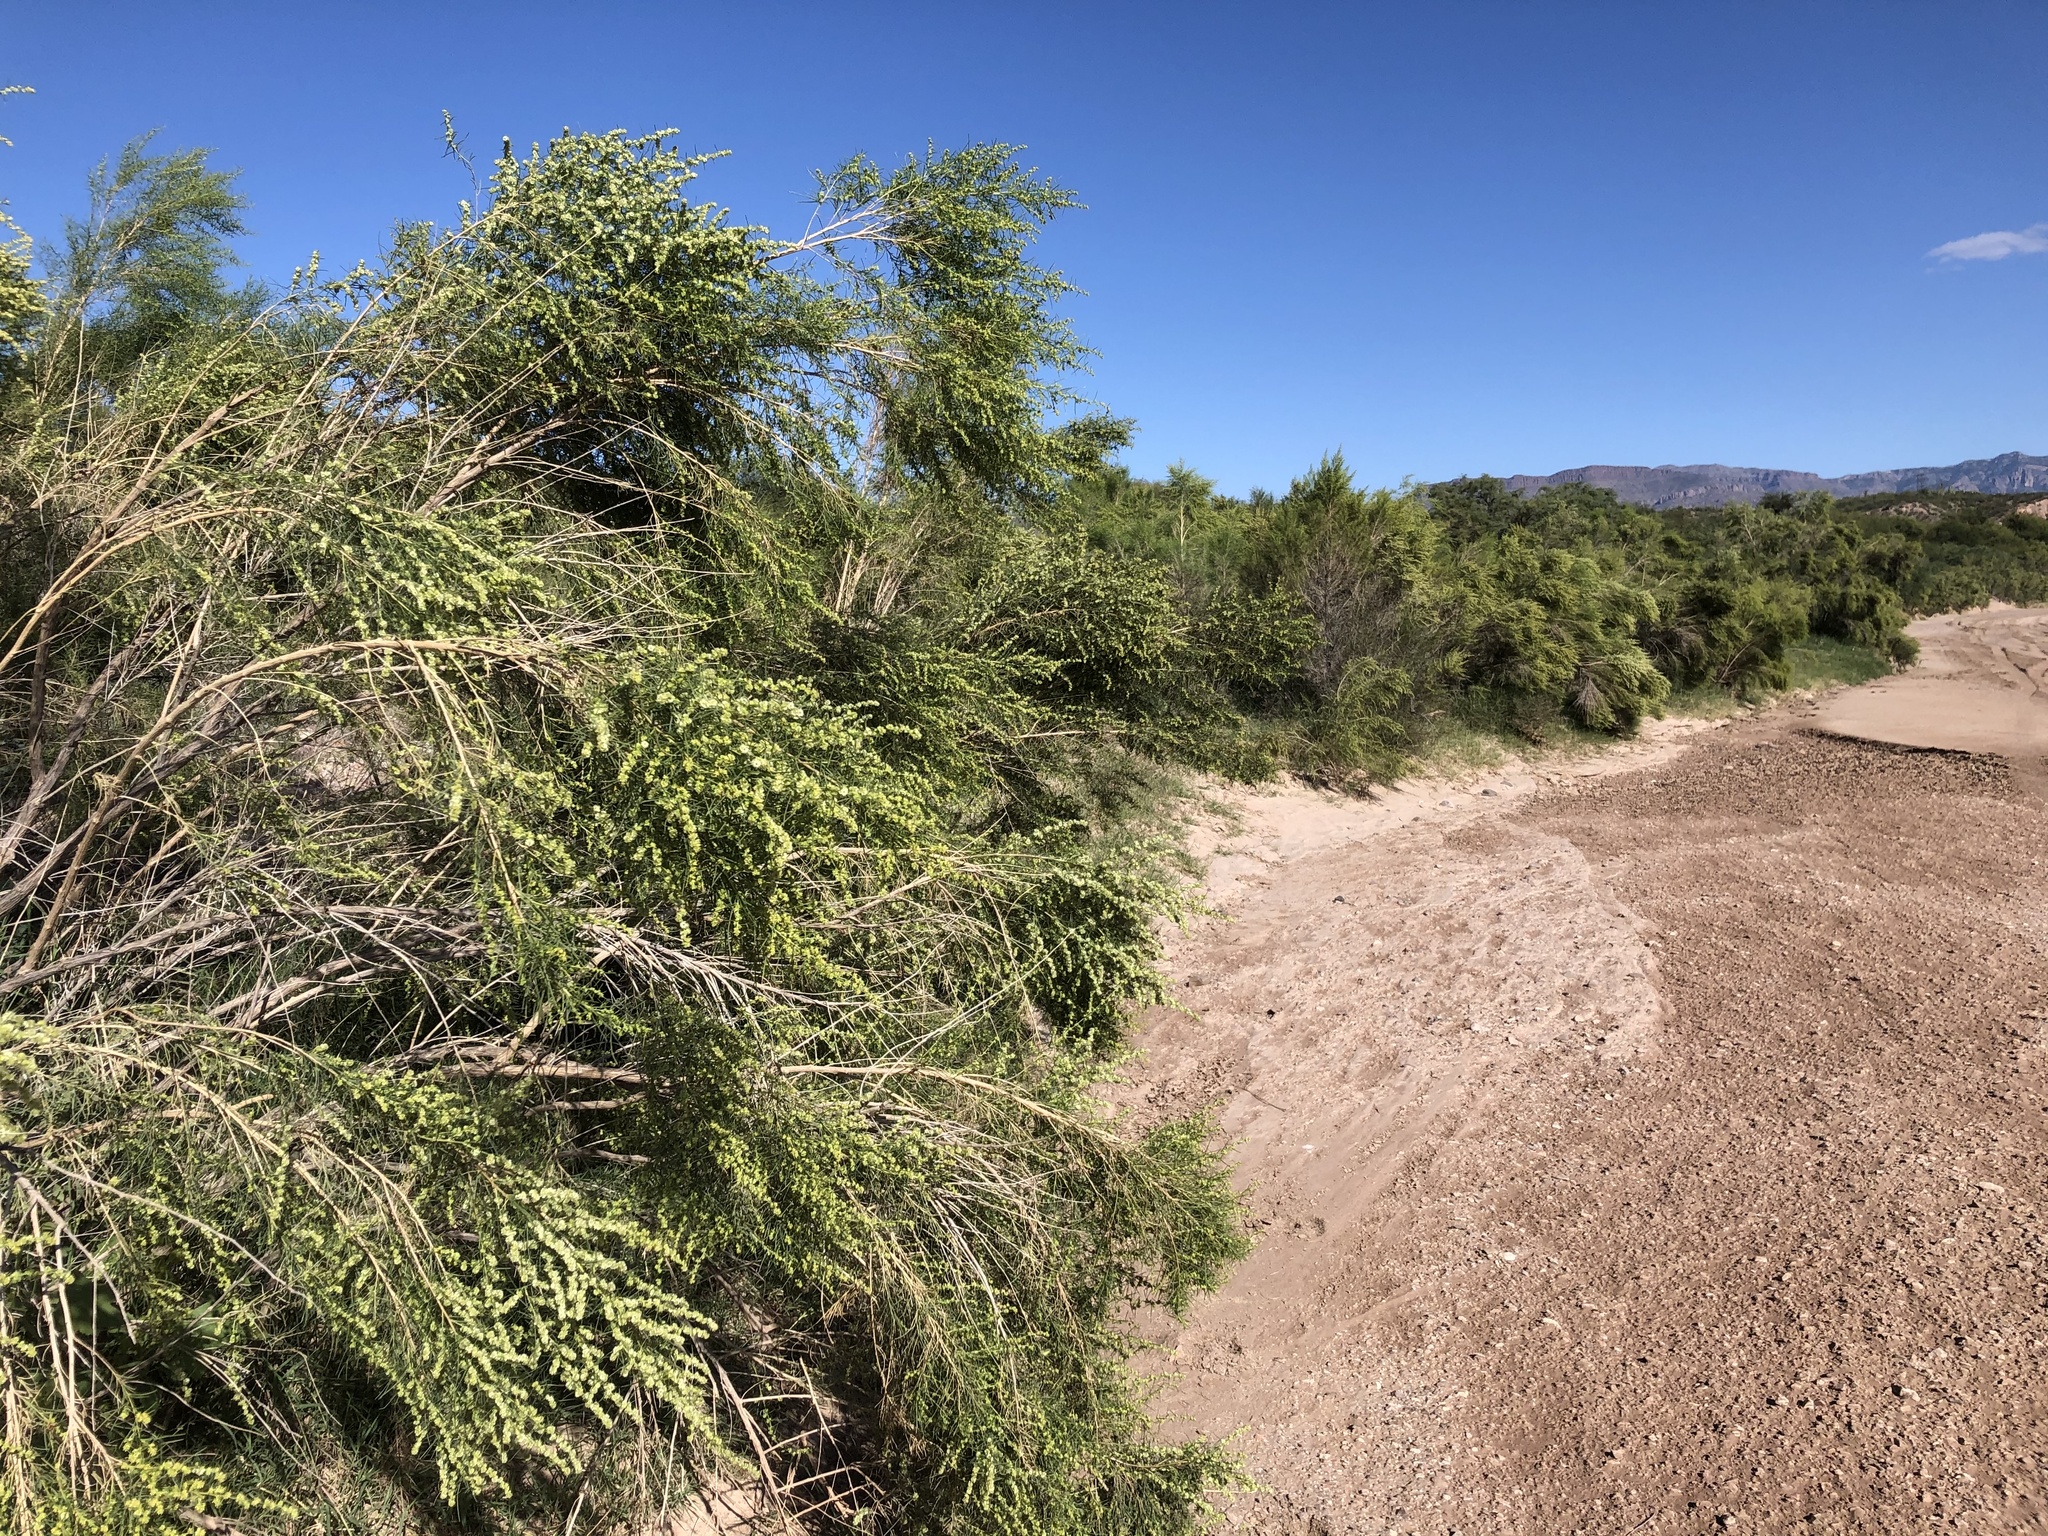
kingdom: Plantae
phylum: Tracheophyta
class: Magnoliopsida
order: Asterales
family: Asteraceae
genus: Ambrosia
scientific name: Ambrosia monogyra
